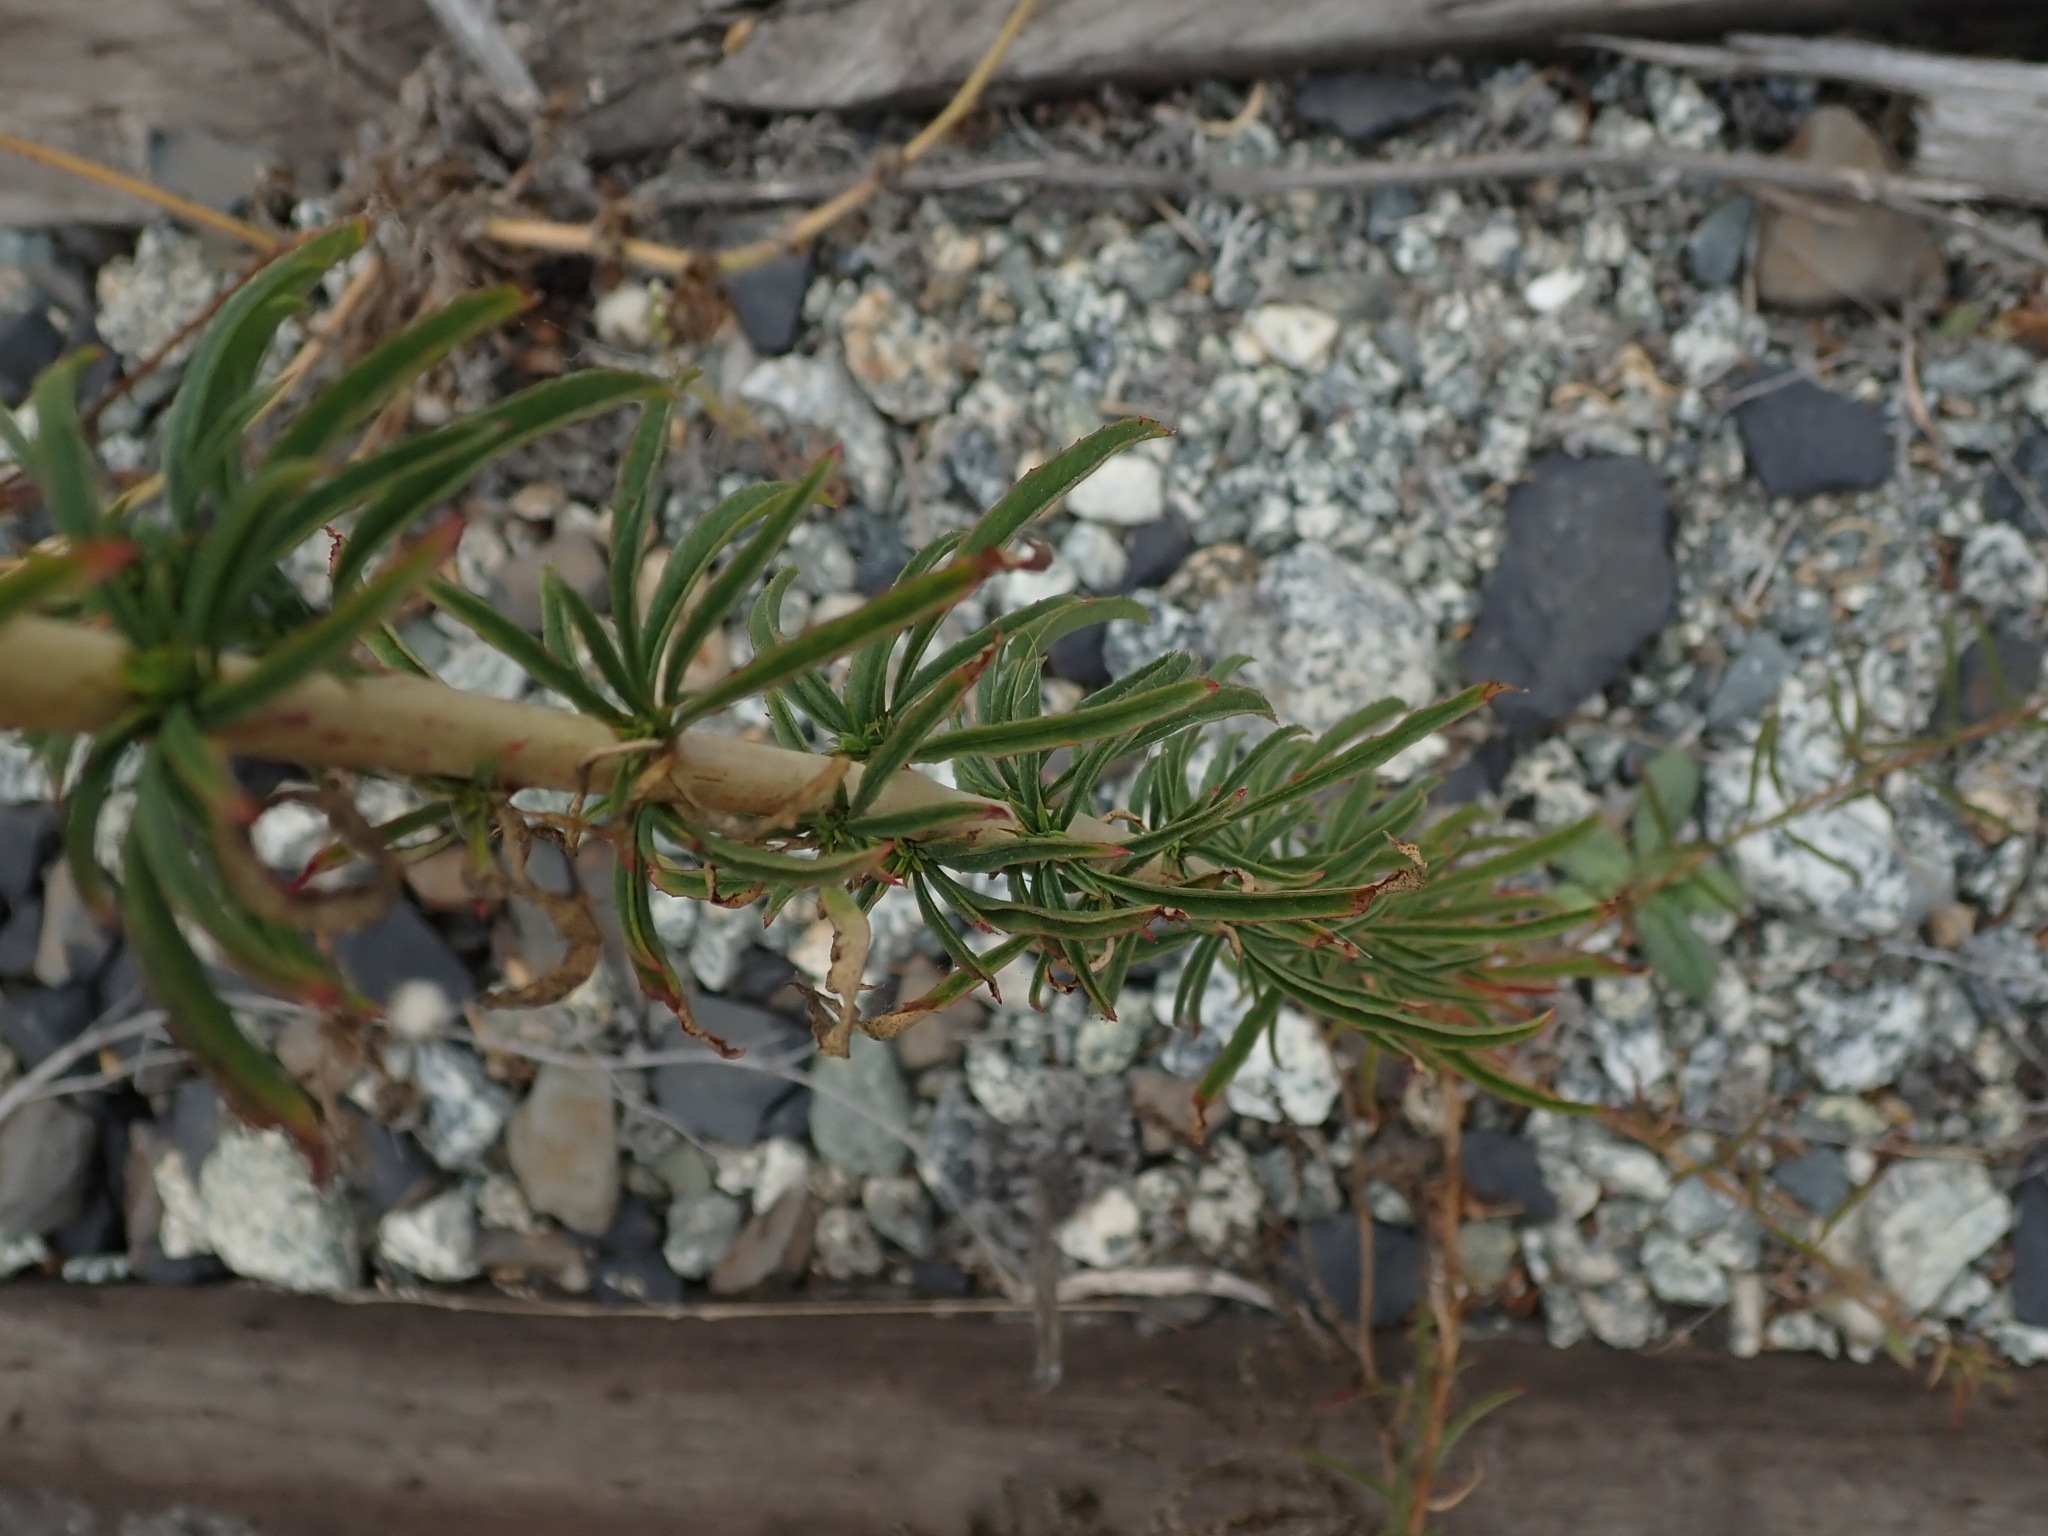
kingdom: Plantae
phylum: Tracheophyta
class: Magnoliopsida
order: Myrtales
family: Onagraceae
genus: Epilobium
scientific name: Epilobium brachycarpum
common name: Annual willowherb
